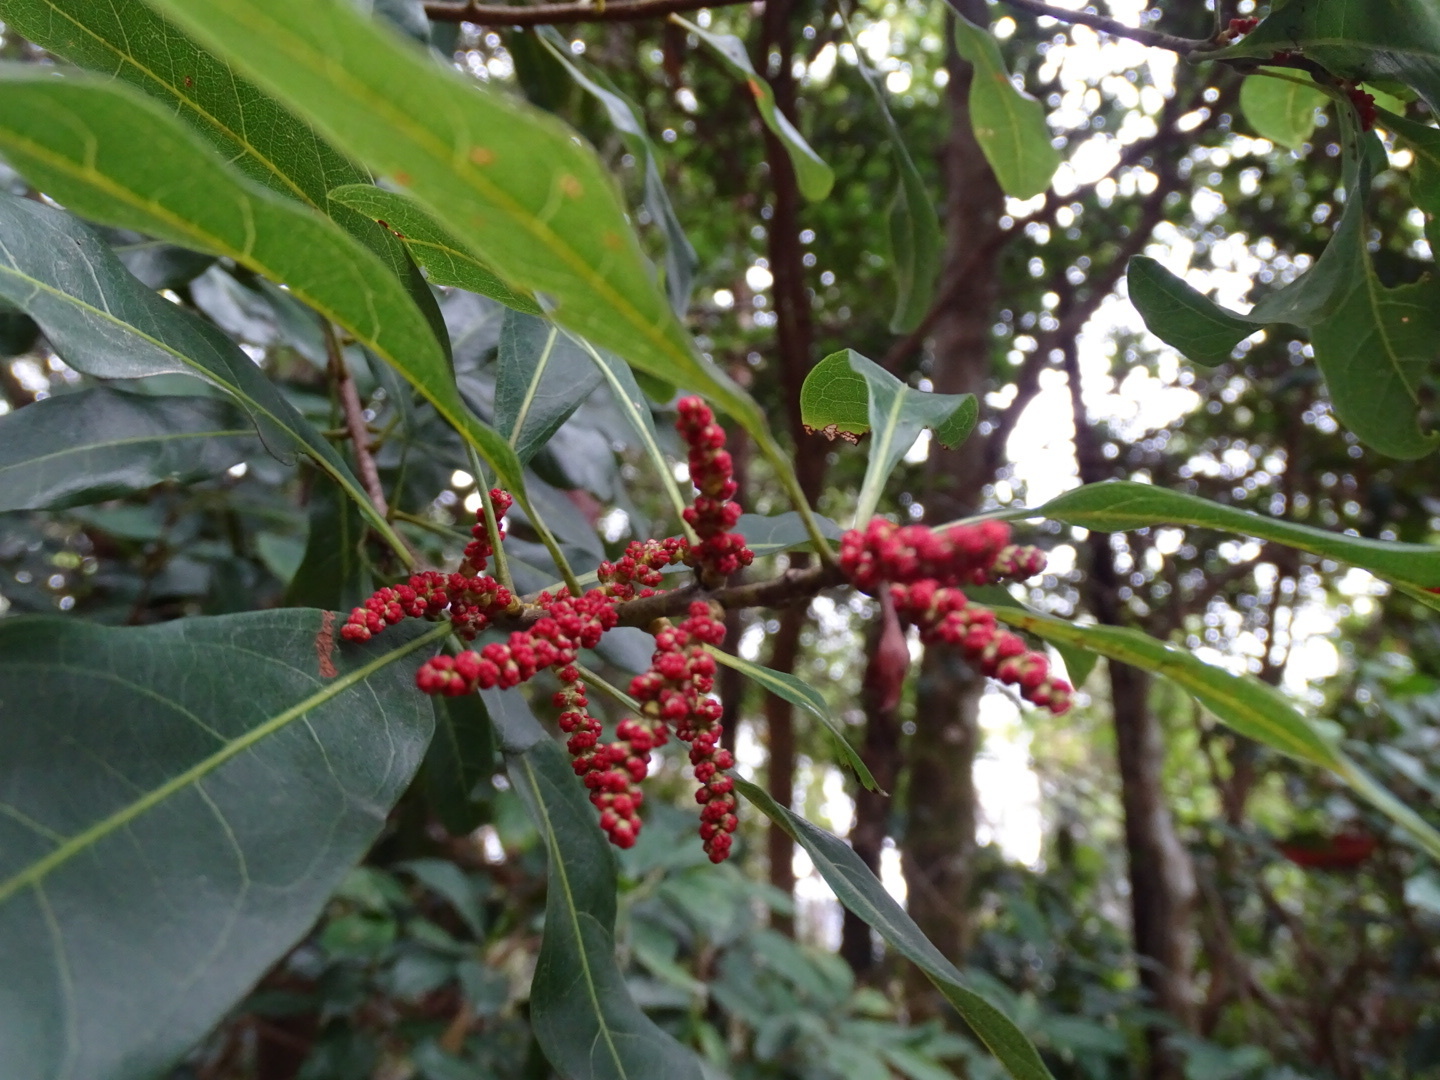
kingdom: Plantae
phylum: Tracheophyta
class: Magnoliopsida
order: Fagales
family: Myricaceae
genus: Morella
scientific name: Morella rubra
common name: Red bayberry
